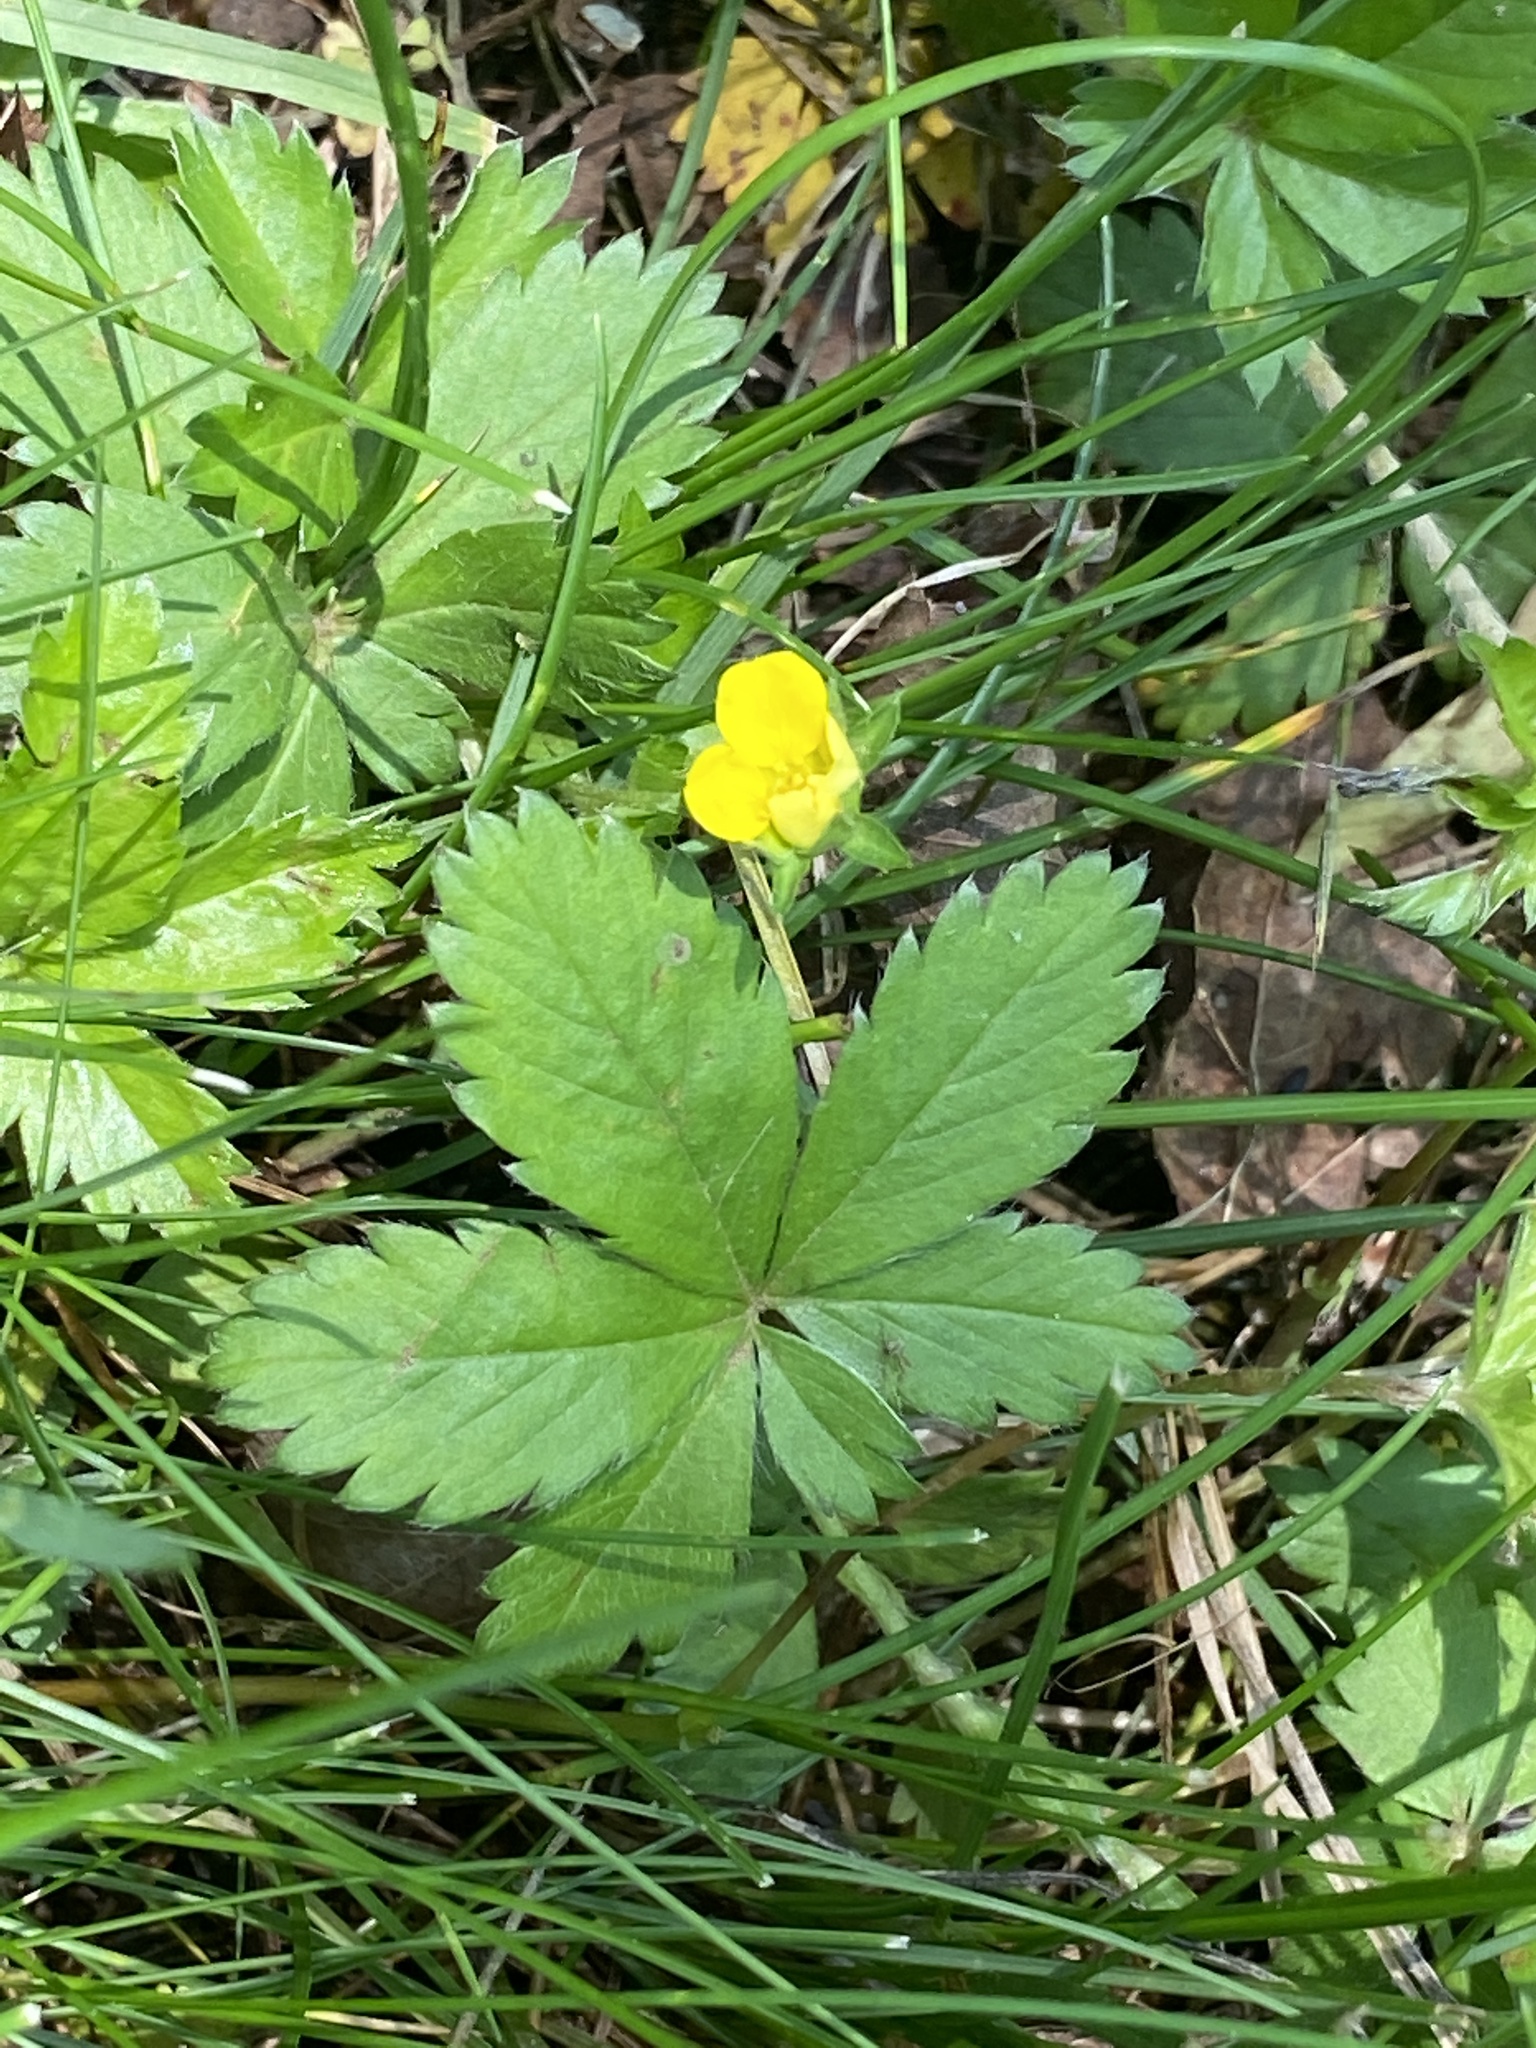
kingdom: Plantae
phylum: Tracheophyta
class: Magnoliopsida
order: Rosales
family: Rosaceae
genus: Potentilla
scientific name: Potentilla canadensis
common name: Canada cinquefoil
